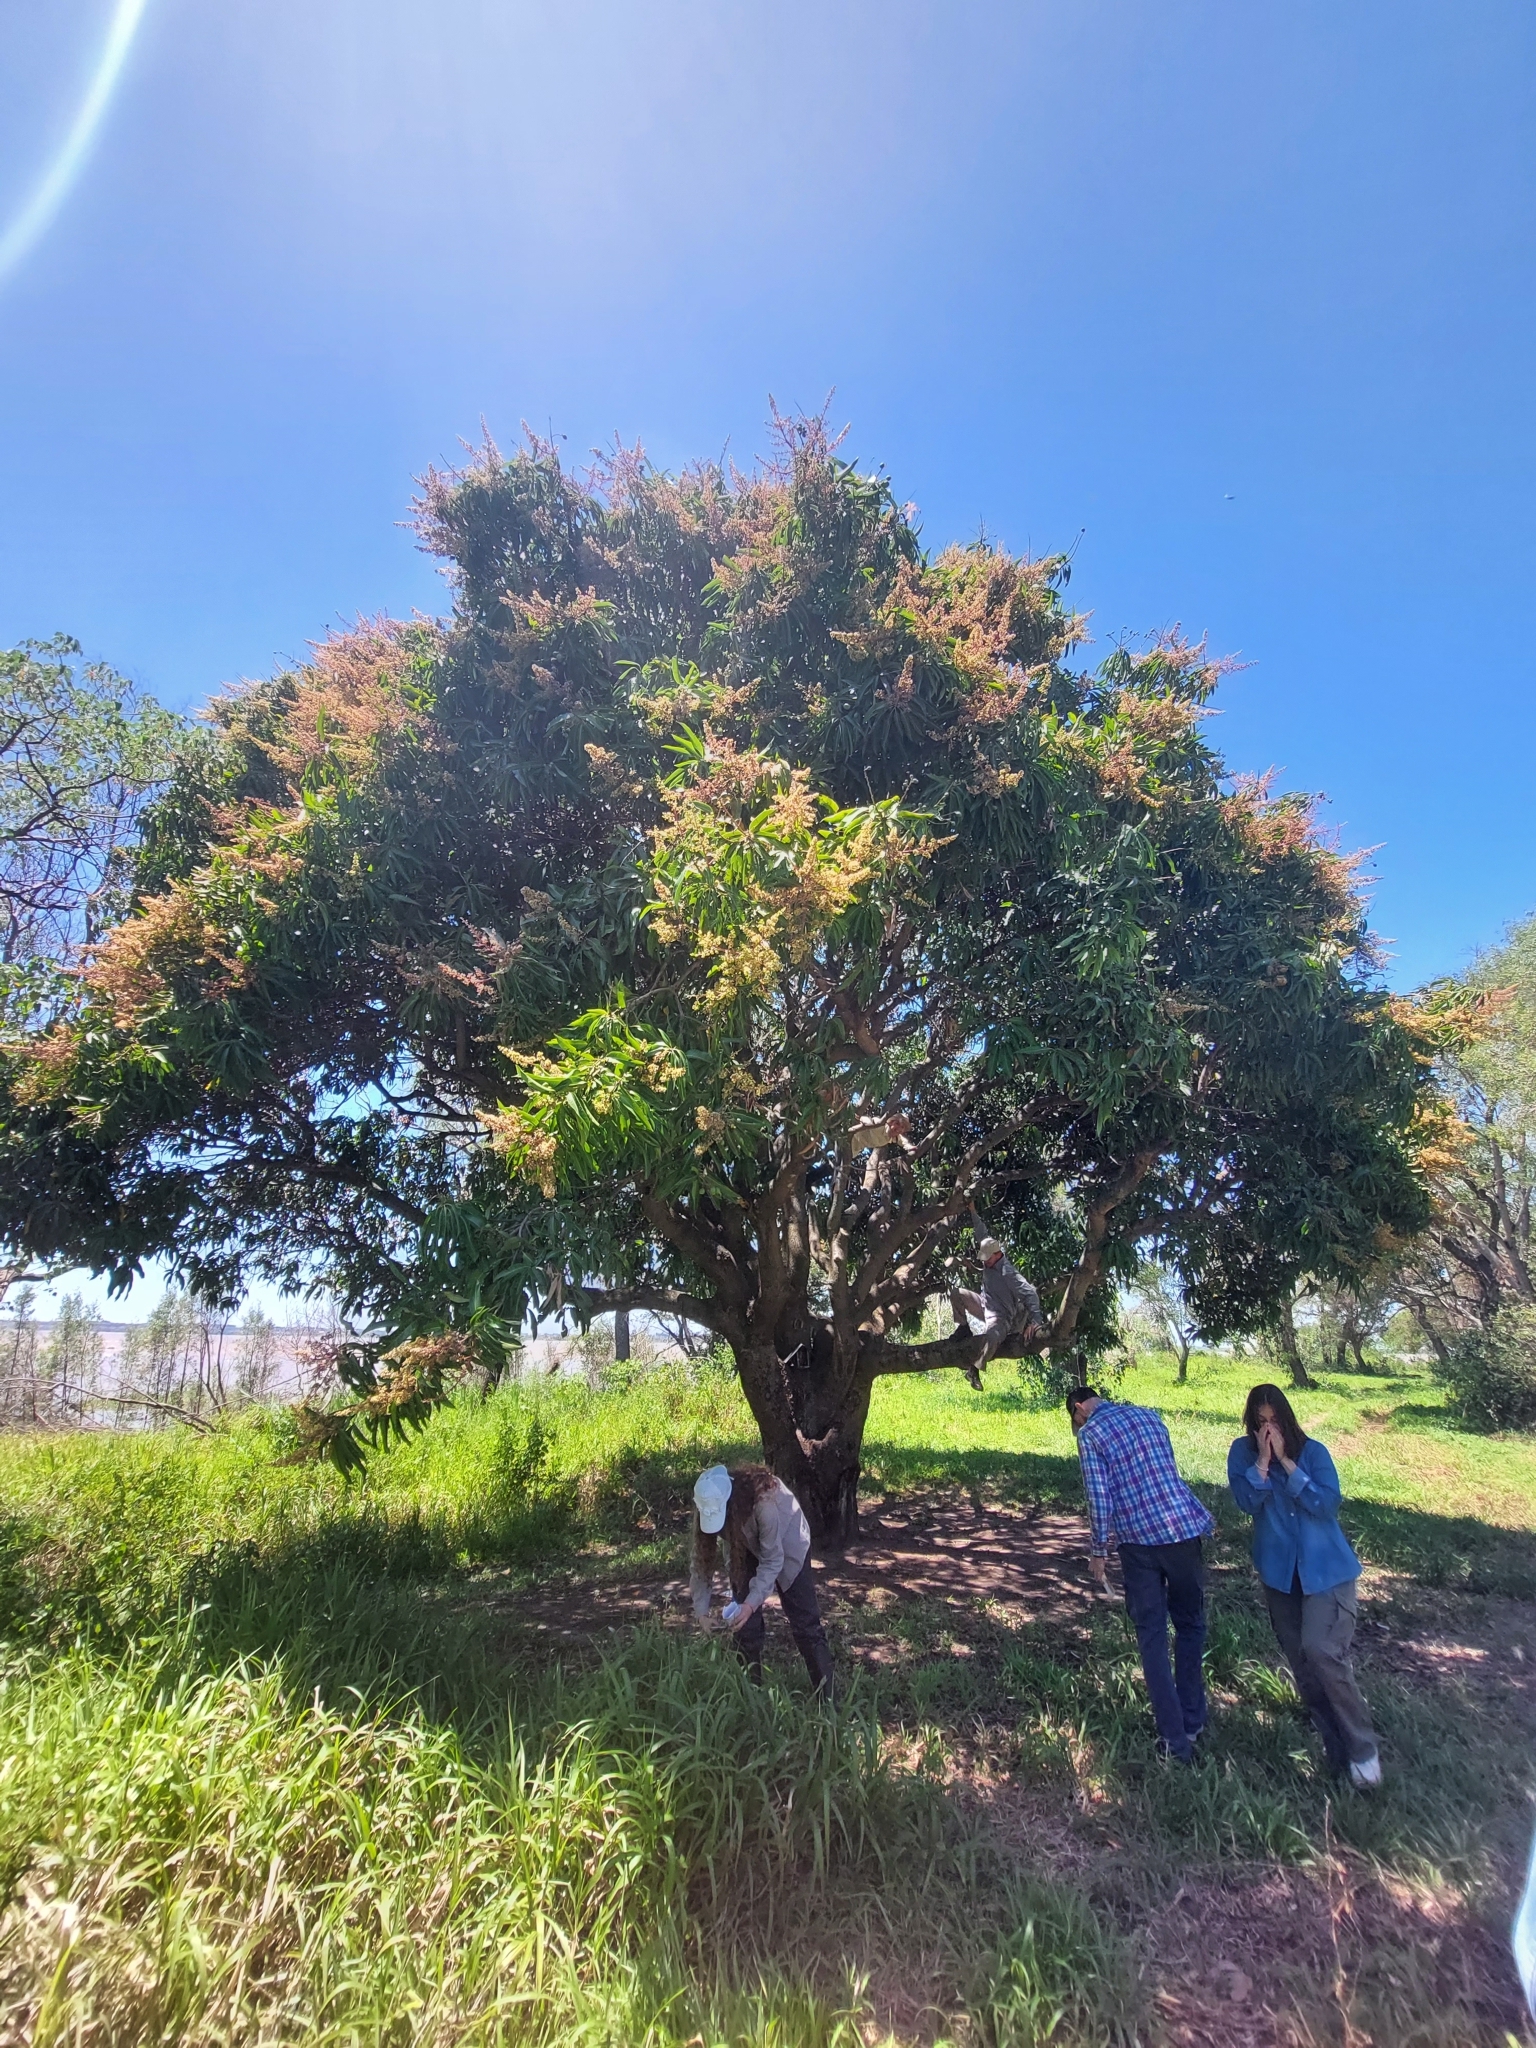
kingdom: Plantae
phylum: Tracheophyta
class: Magnoliopsida
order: Sapindales
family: Anacardiaceae
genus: Mangifera
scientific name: Mangifera indica
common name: Mango
